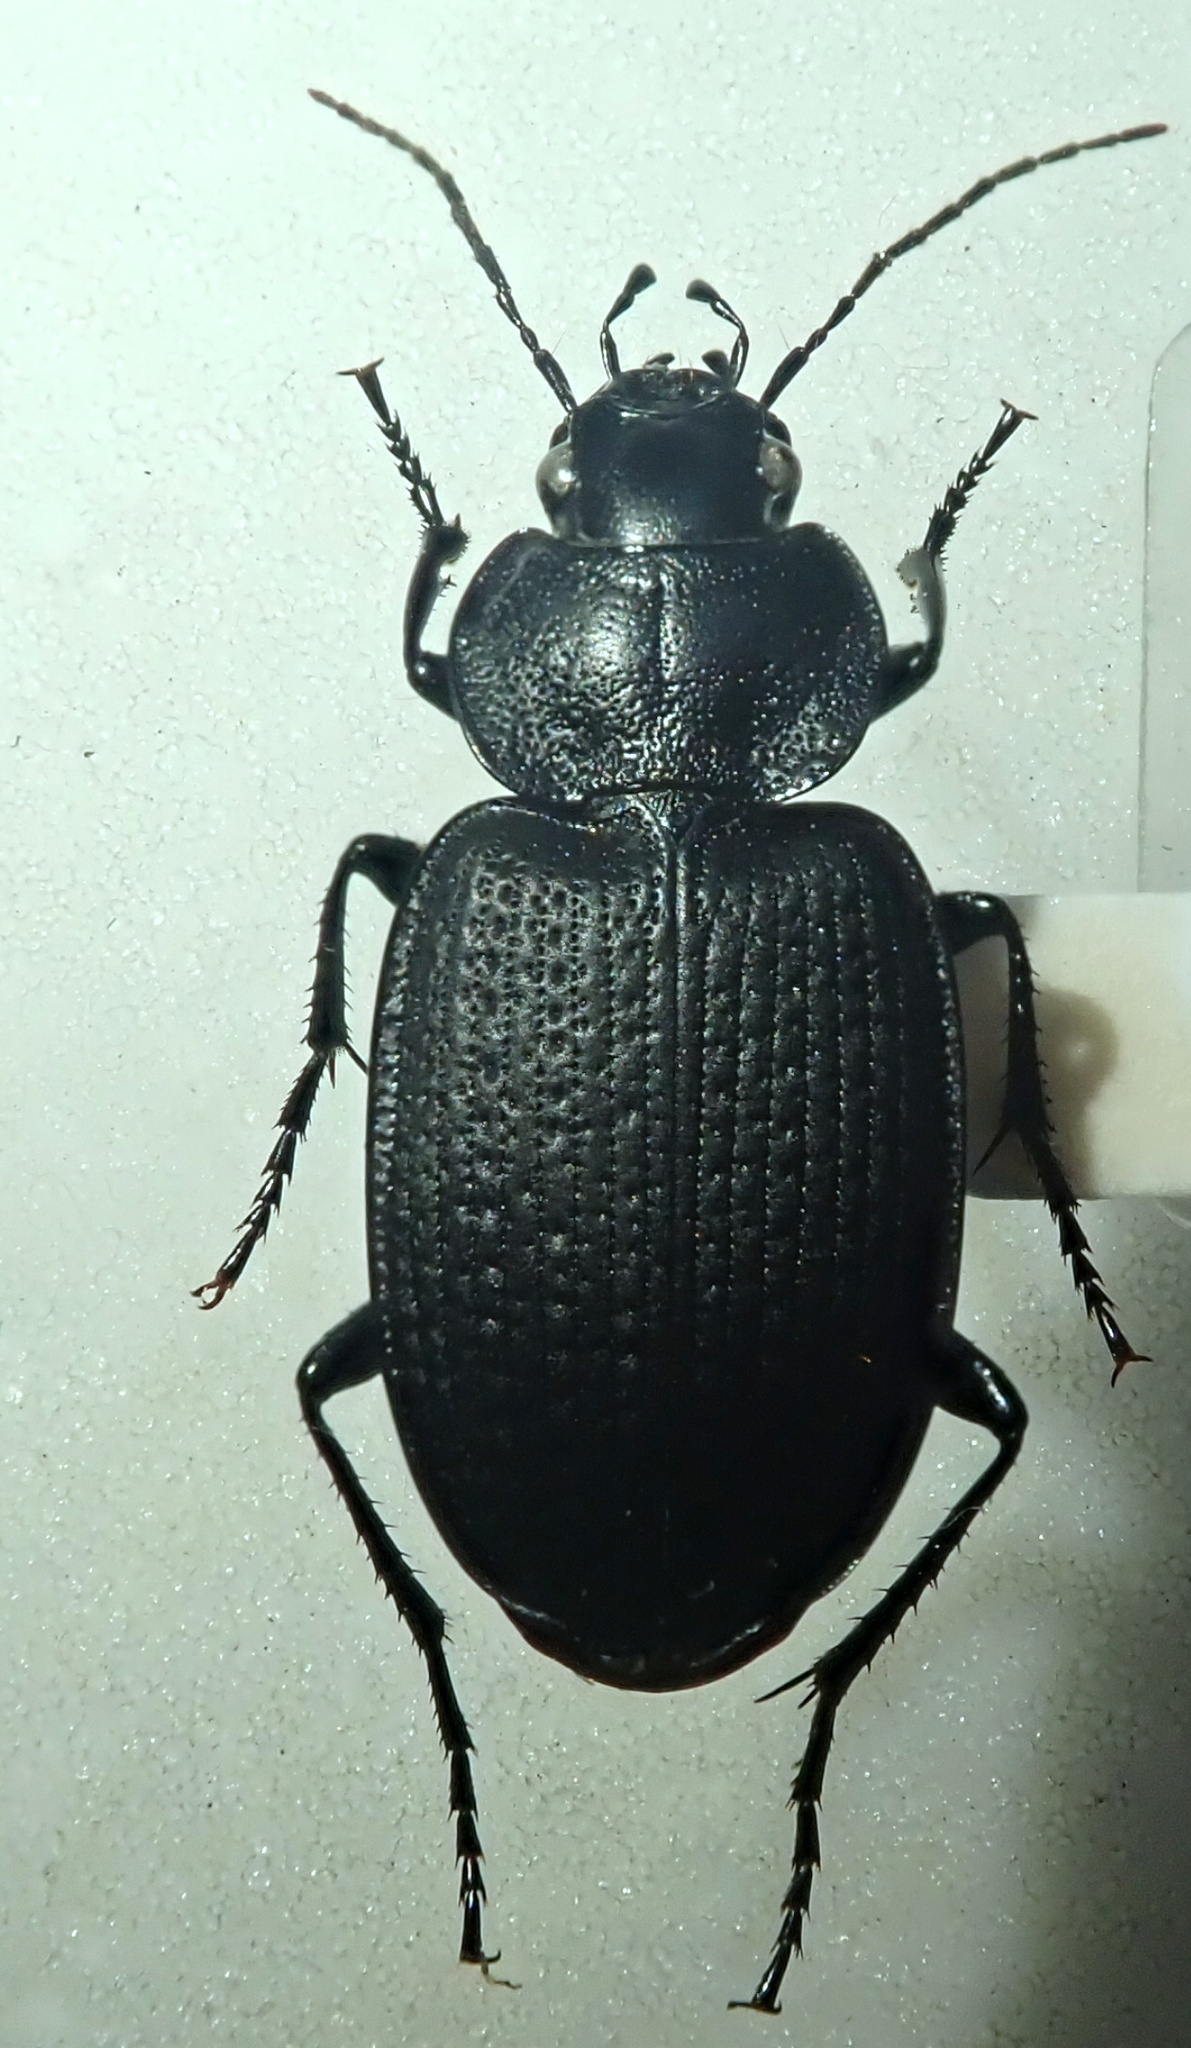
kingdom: Animalia
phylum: Arthropoda
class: Insecta
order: Coleoptera
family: Carabidae
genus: Licinus
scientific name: Licinus punctatulus
